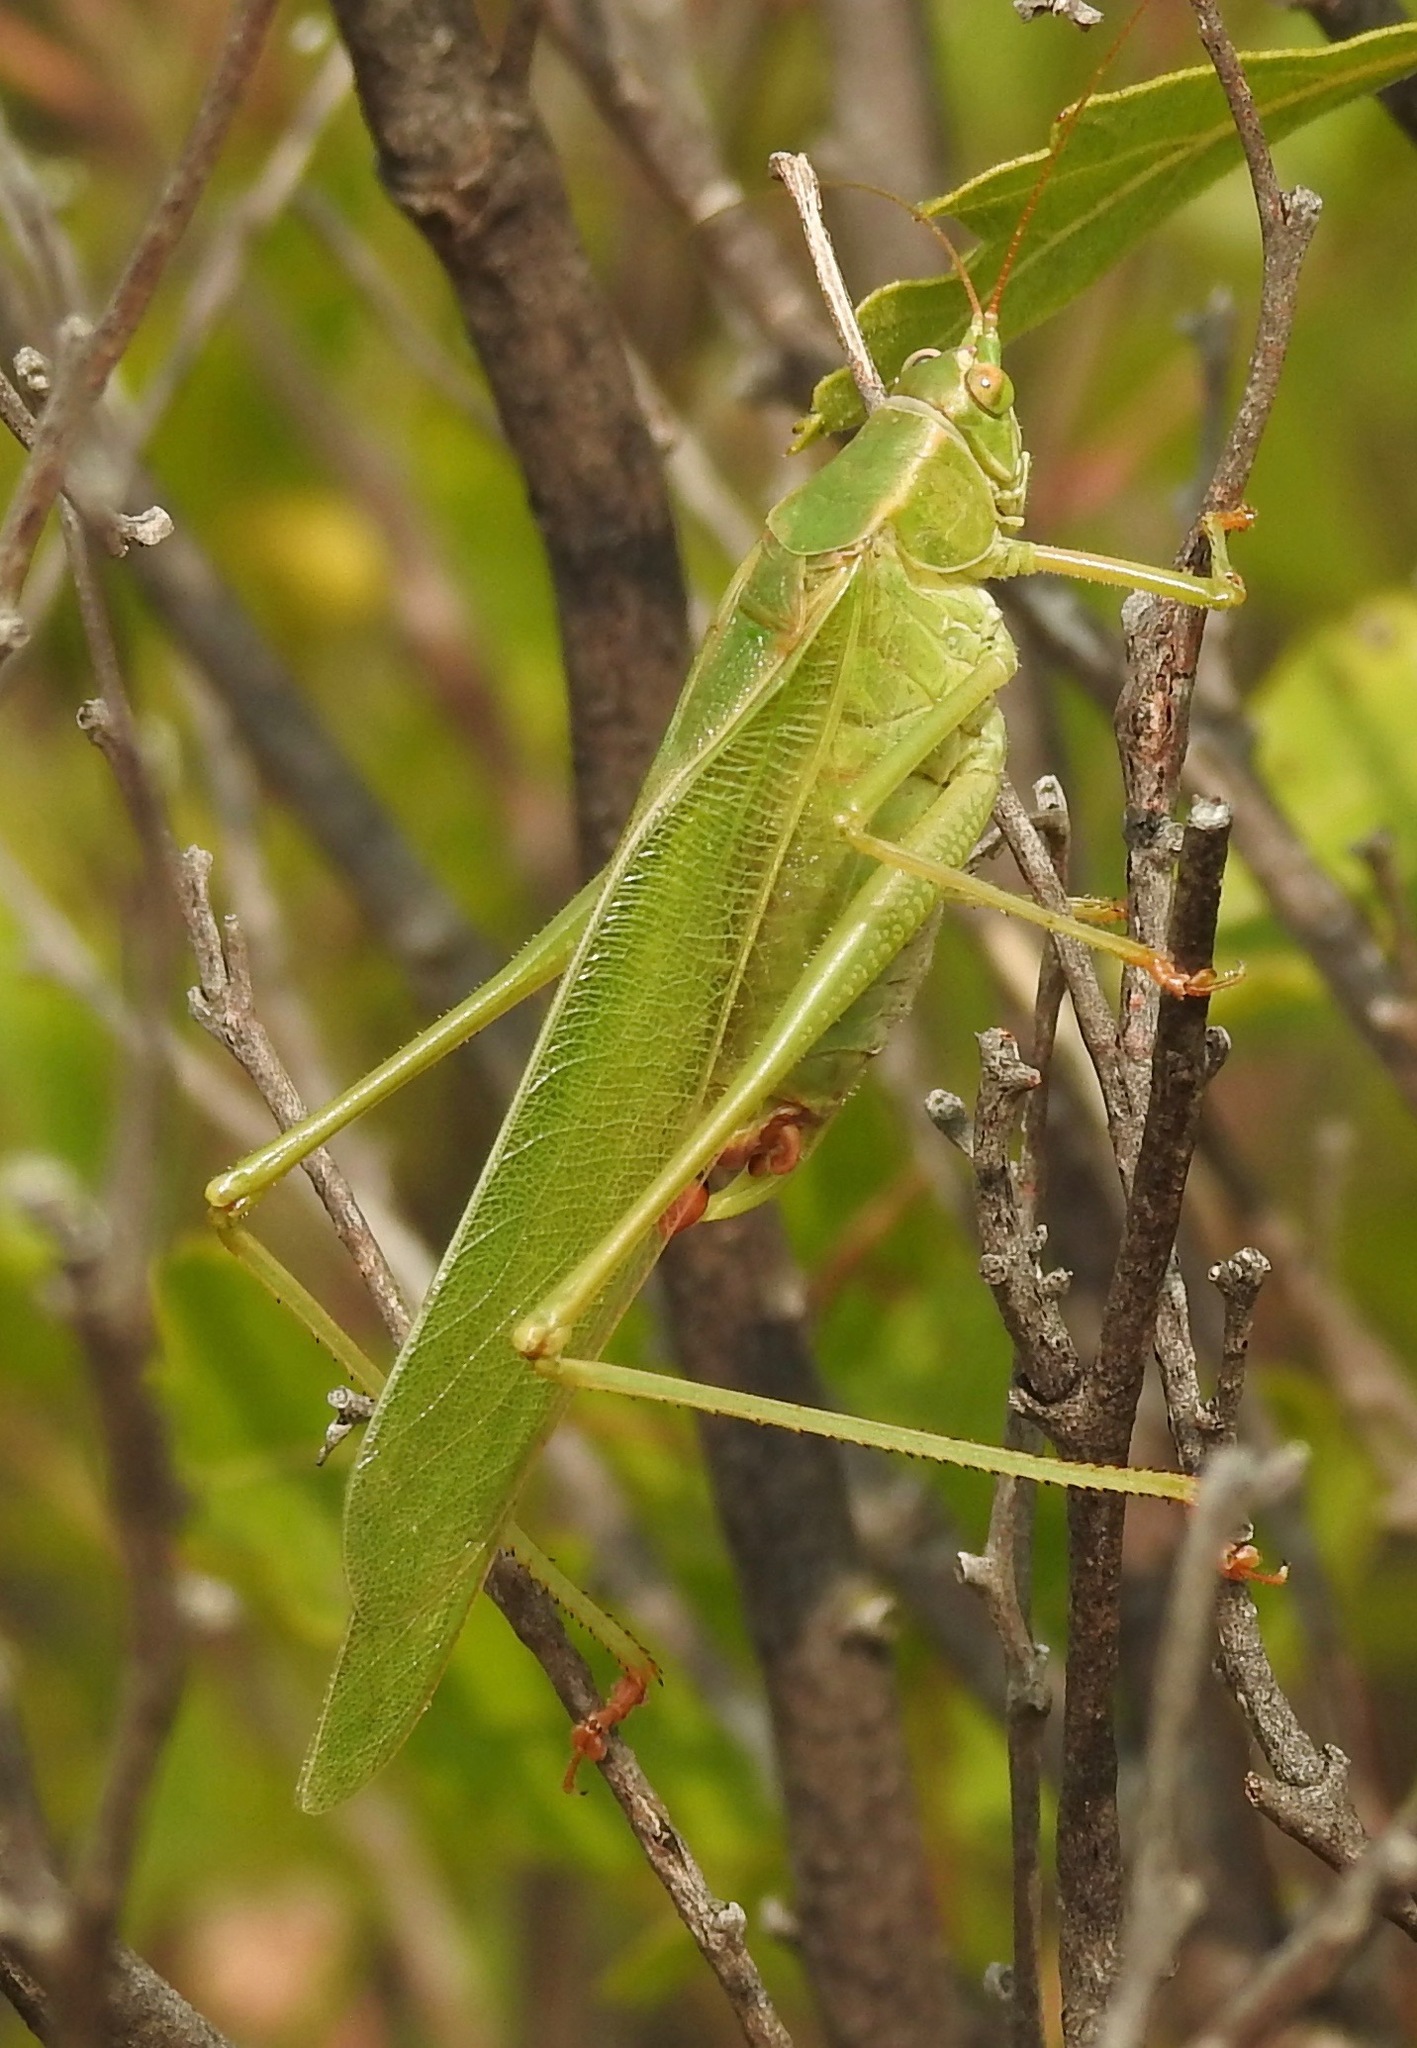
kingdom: Animalia
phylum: Arthropoda
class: Insecta
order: Orthoptera
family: Tettigoniidae
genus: Scudderia
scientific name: Scudderia furcata
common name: Fork-tailed bush katydid
